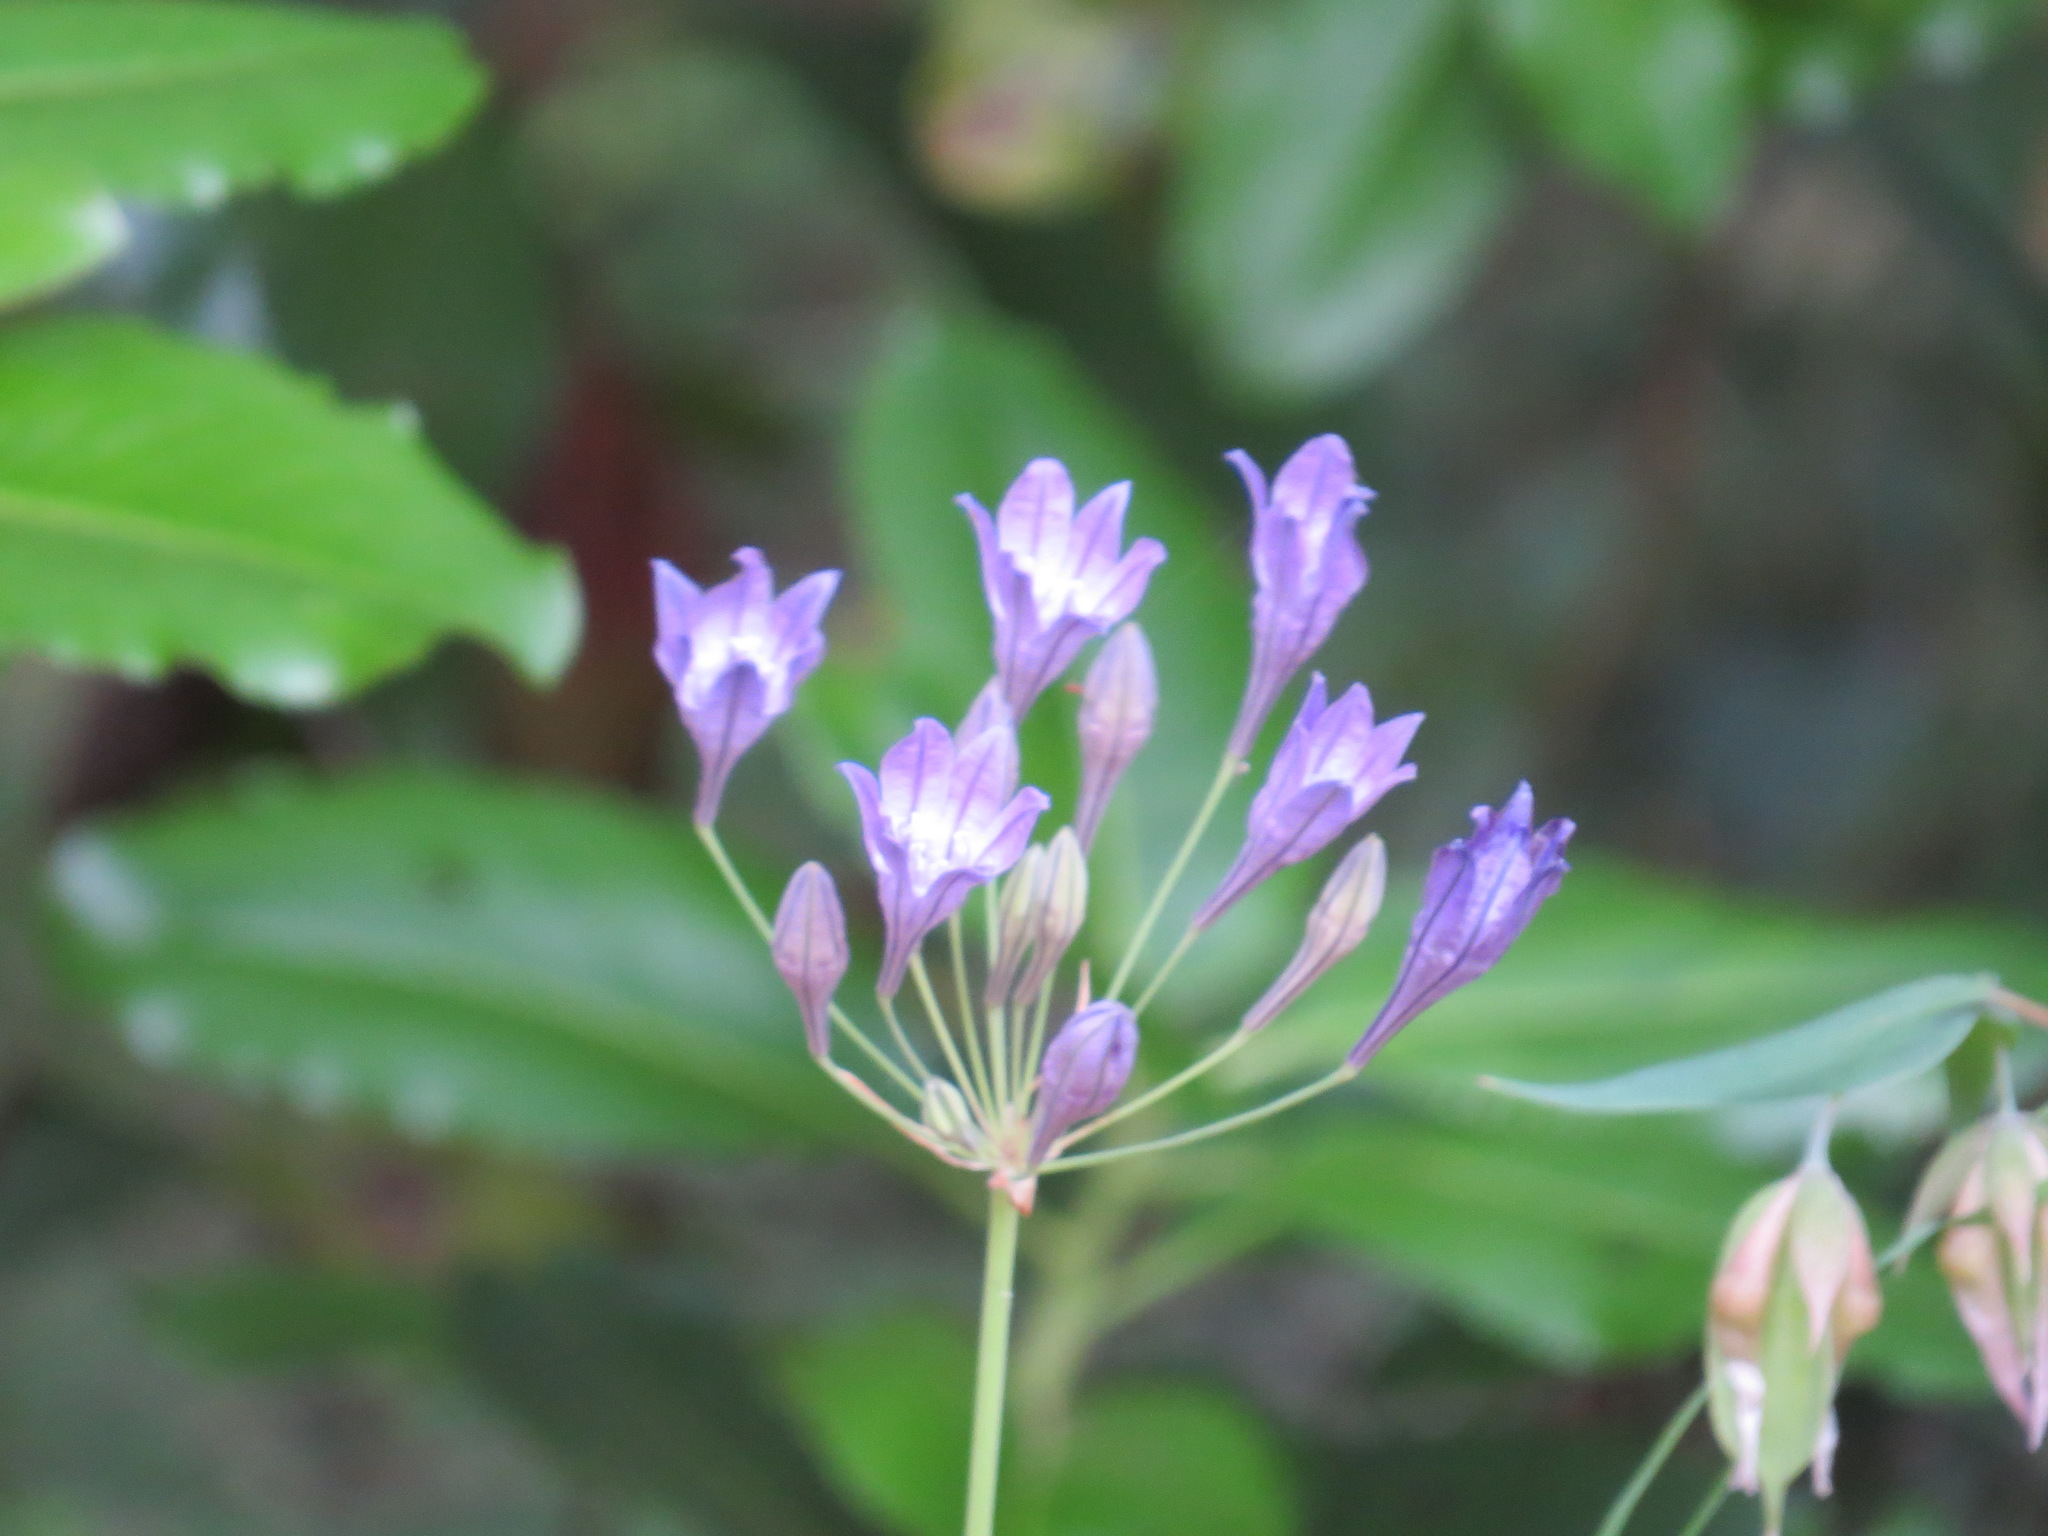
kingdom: Plantae
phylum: Tracheophyta
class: Liliopsida
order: Asparagales
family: Asparagaceae
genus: Triteleia
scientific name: Triteleia laxa
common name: Triplet-lily
